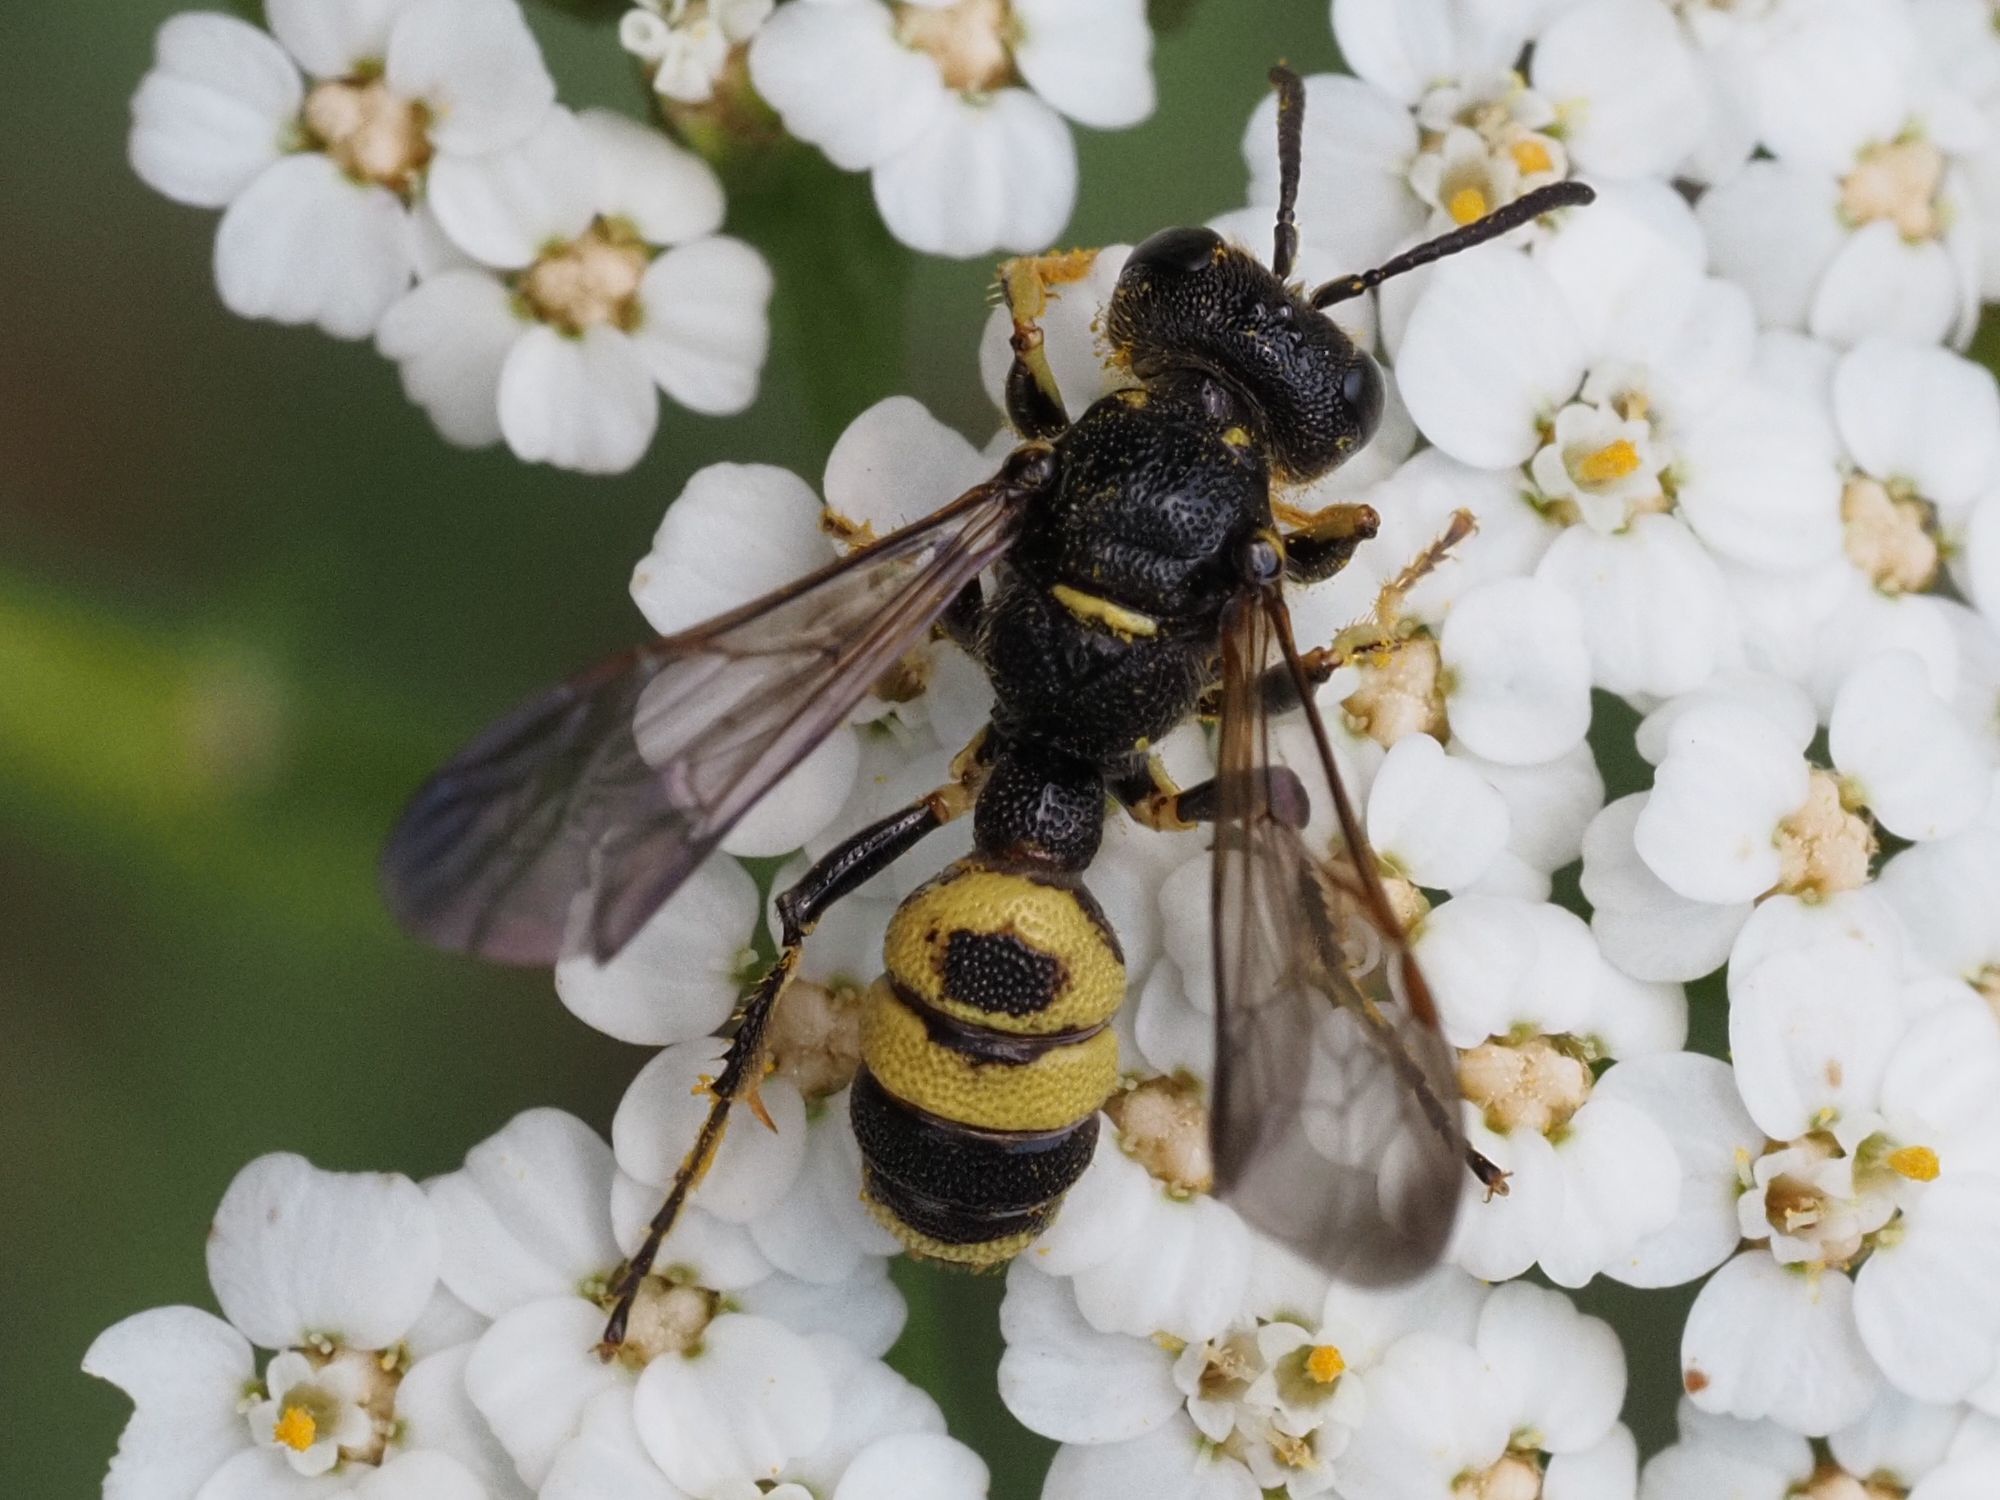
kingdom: Animalia
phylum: Arthropoda
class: Insecta
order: Hymenoptera
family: Crabronidae
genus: Cerceris
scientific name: Cerceris hortivaga
